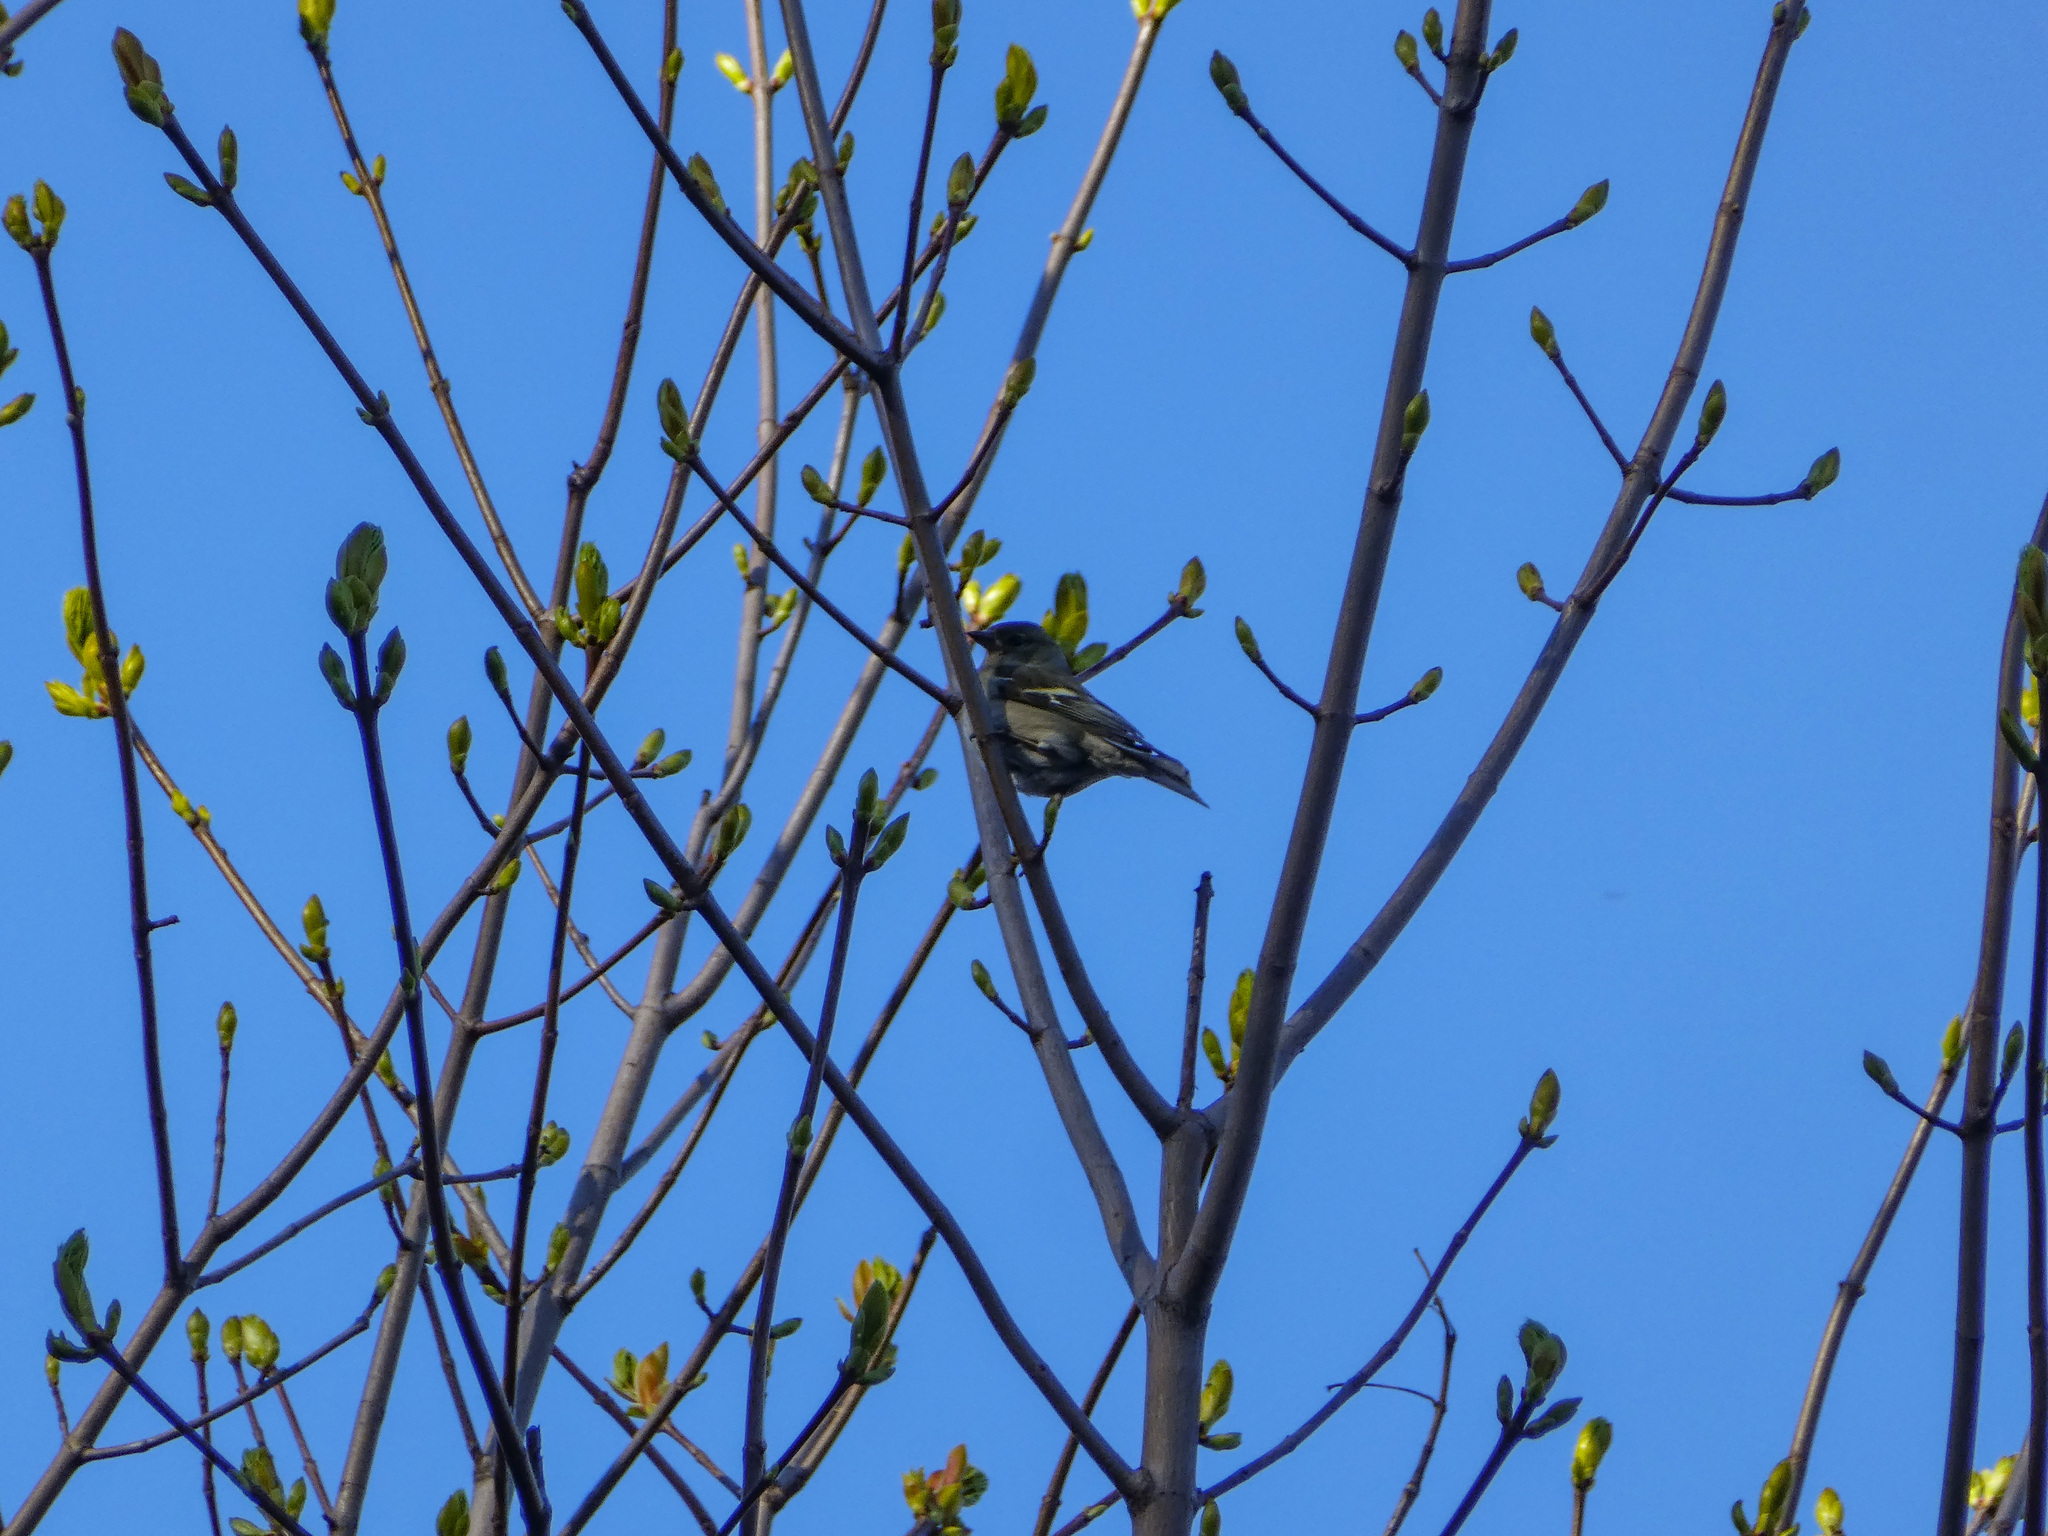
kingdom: Animalia
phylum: Chordata
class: Aves
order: Passeriformes
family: Fringillidae
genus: Fringilla
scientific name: Fringilla coelebs
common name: Common chaffinch
